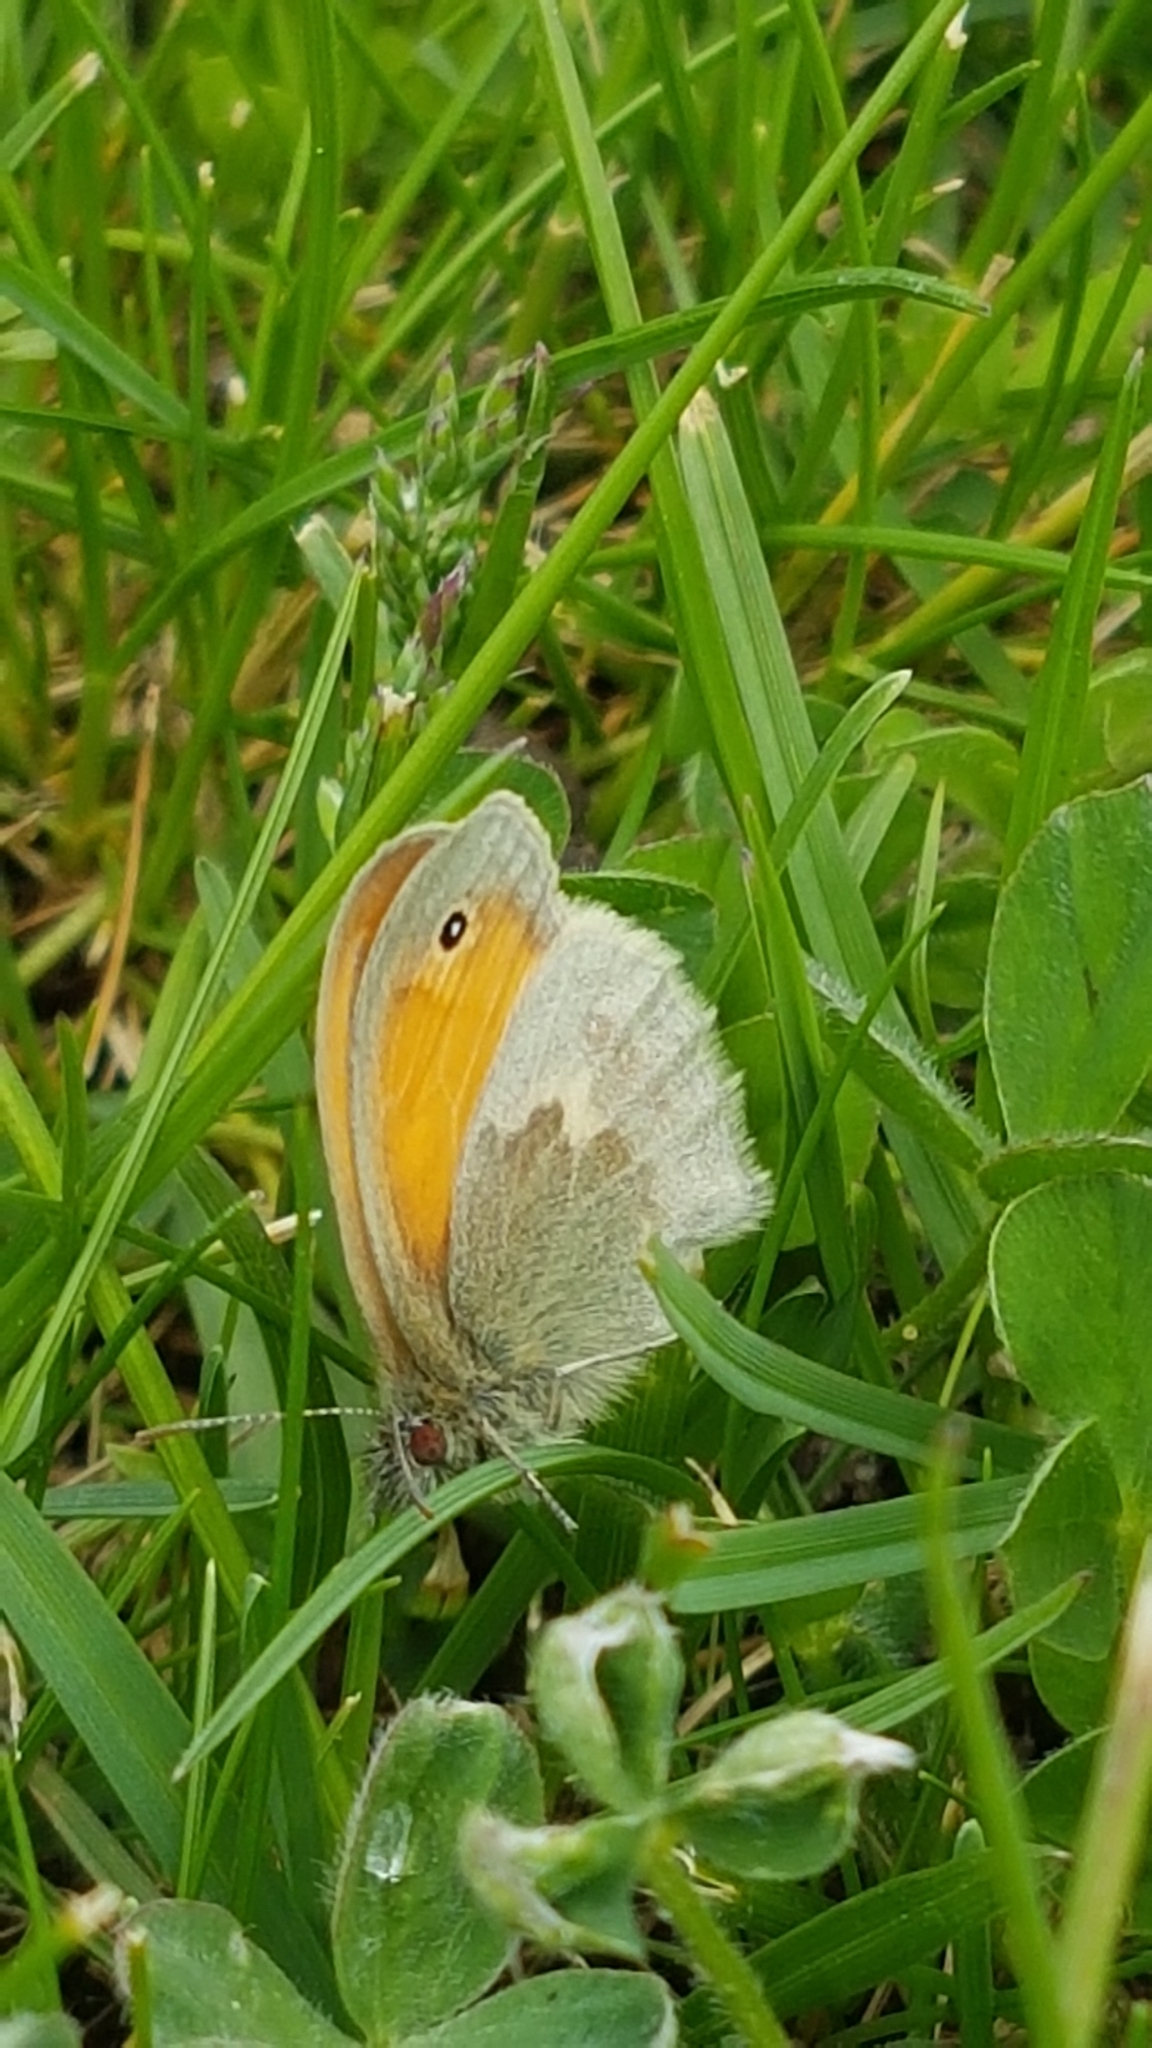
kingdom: Animalia
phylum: Arthropoda
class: Insecta
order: Lepidoptera
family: Nymphalidae
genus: Coenonympha
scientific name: Coenonympha pamphilus
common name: Small heath
